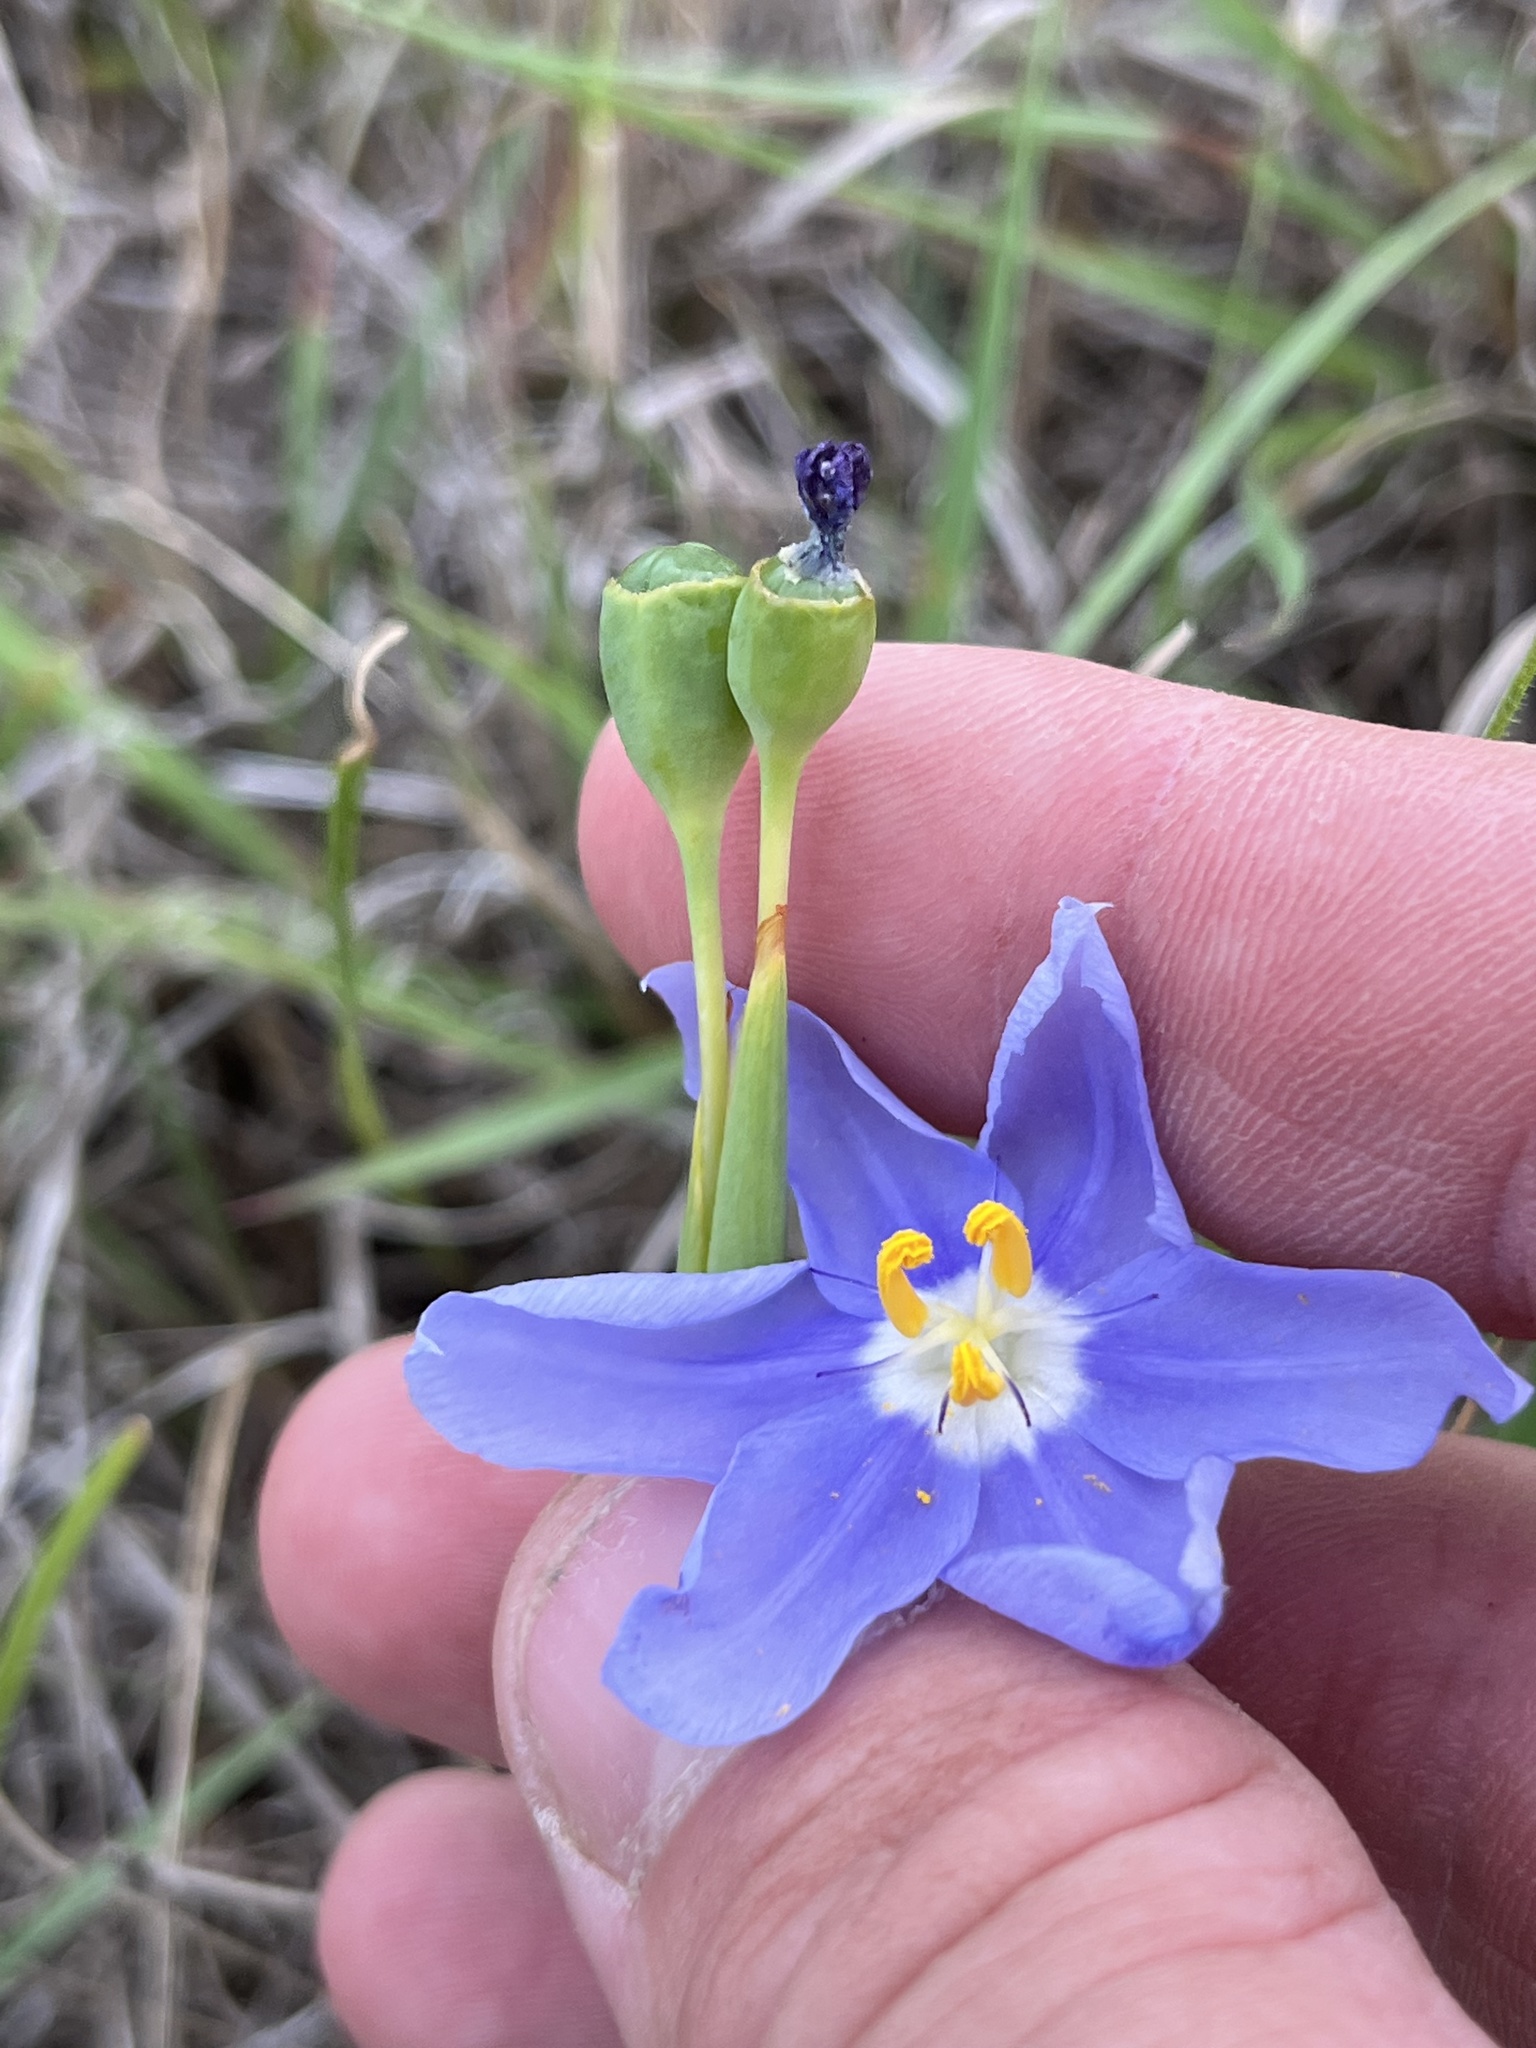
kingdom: Plantae
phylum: Tracheophyta
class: Liliopsida
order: Asparagales
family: Iridaceae
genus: Nemastylis
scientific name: Nemastylis geminiflora
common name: Prairie celestial
